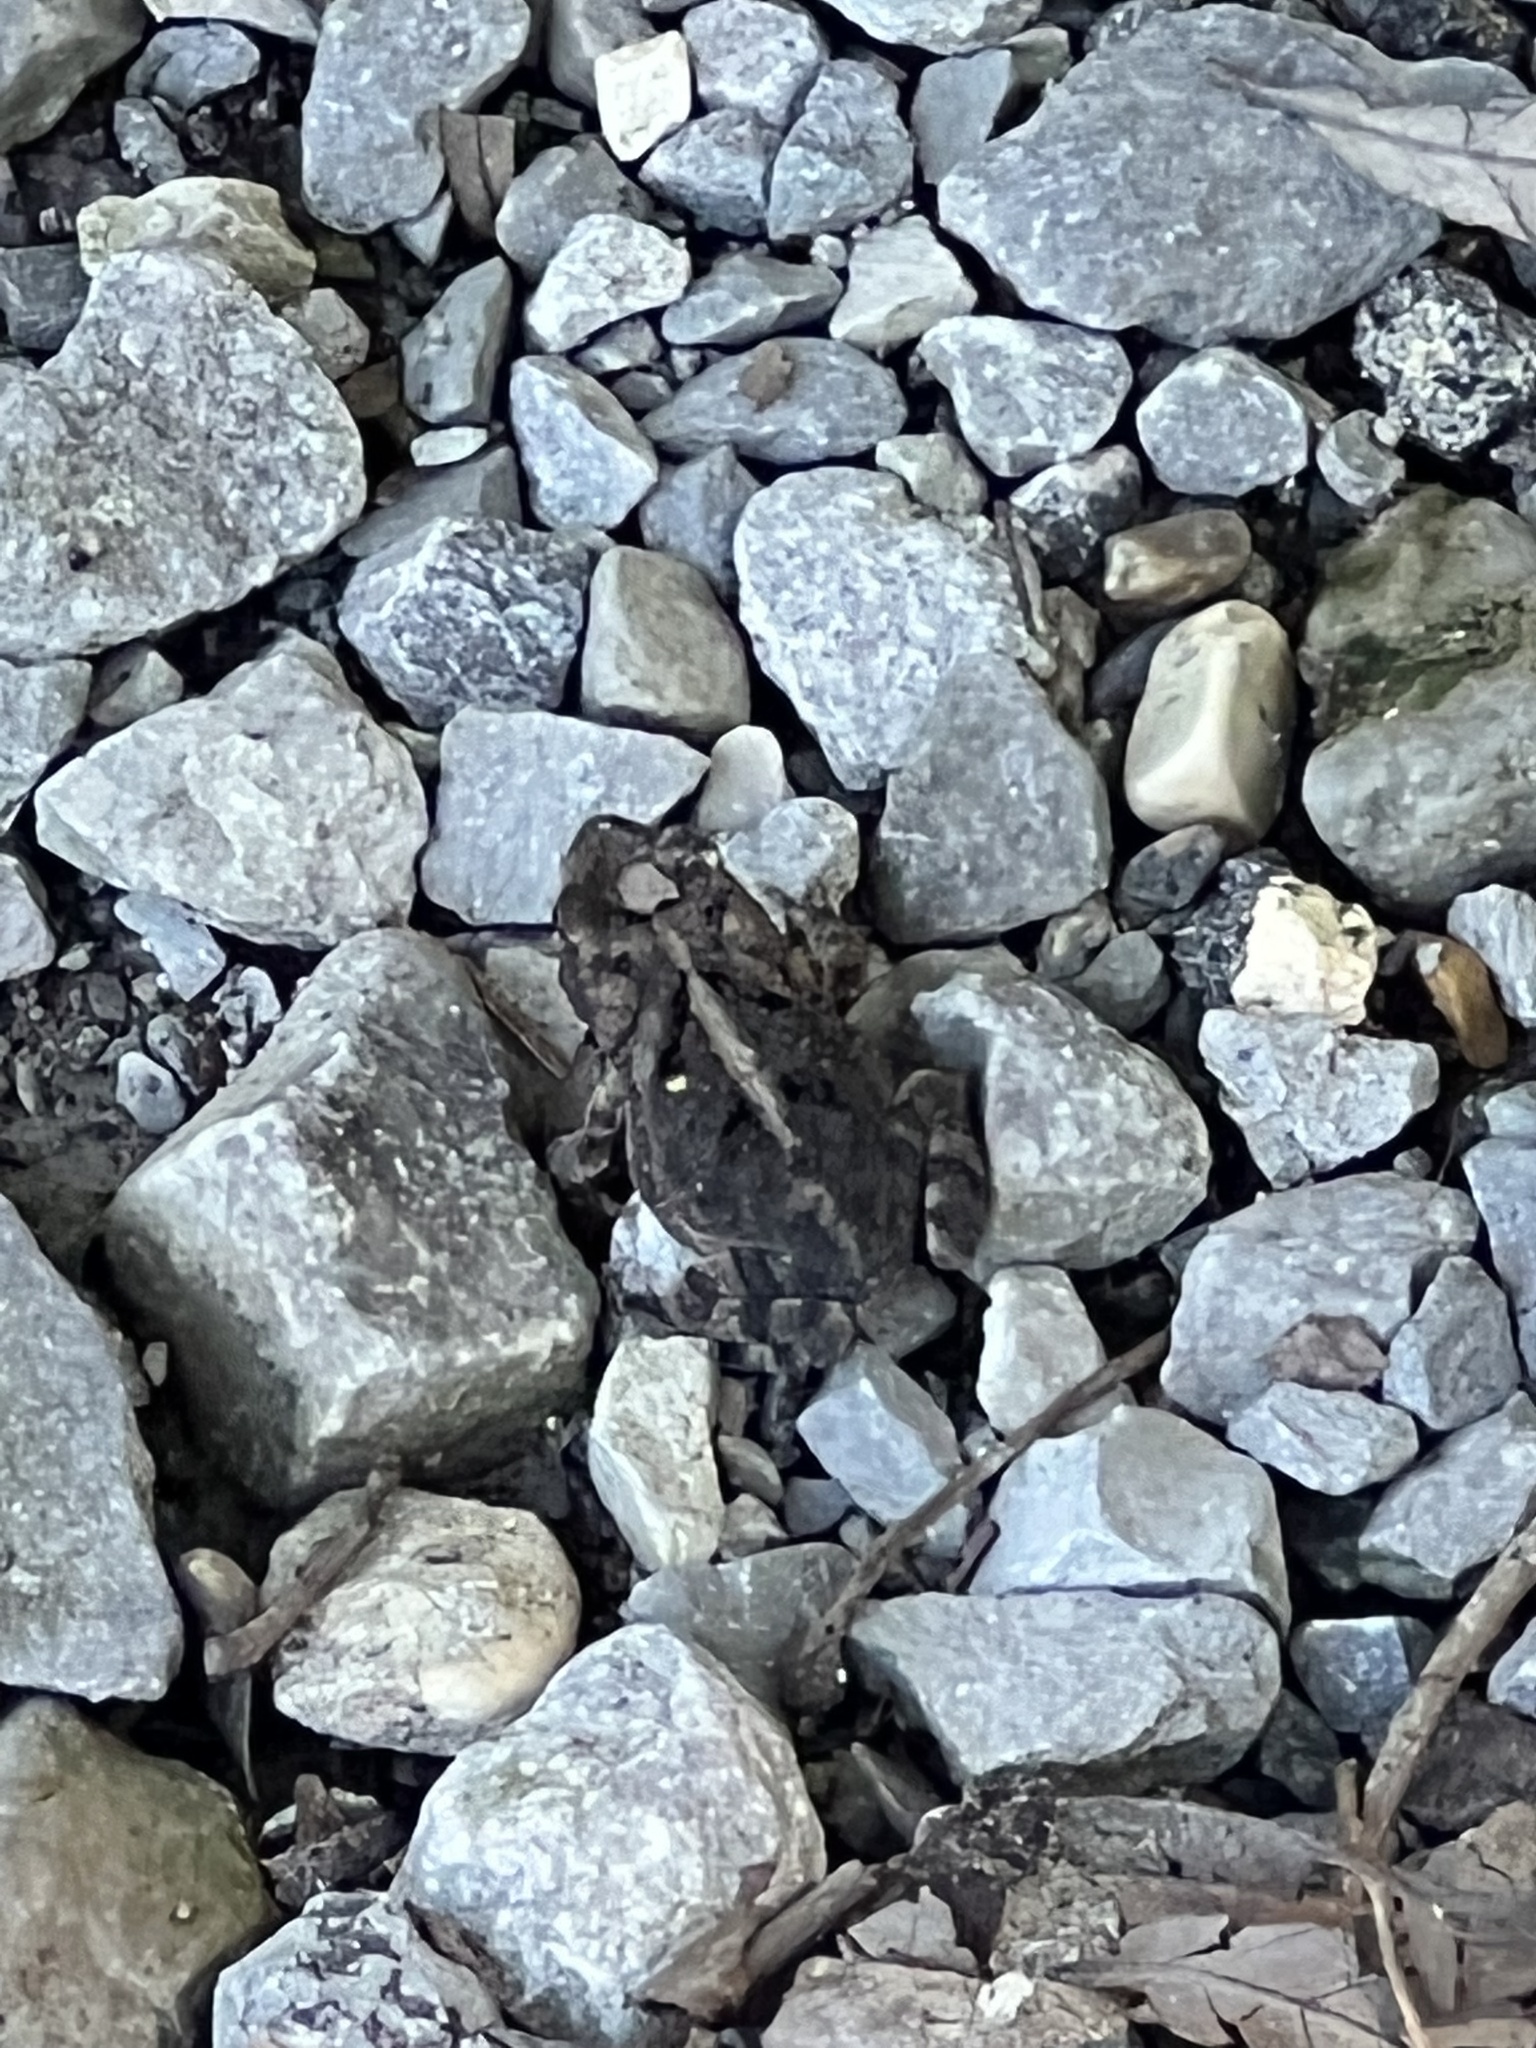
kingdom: Animalia
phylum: Chordata
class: Amphibia
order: Anura
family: Bufonidae
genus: Incilius
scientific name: Incilius nebulifer
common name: Gulf coast toad
